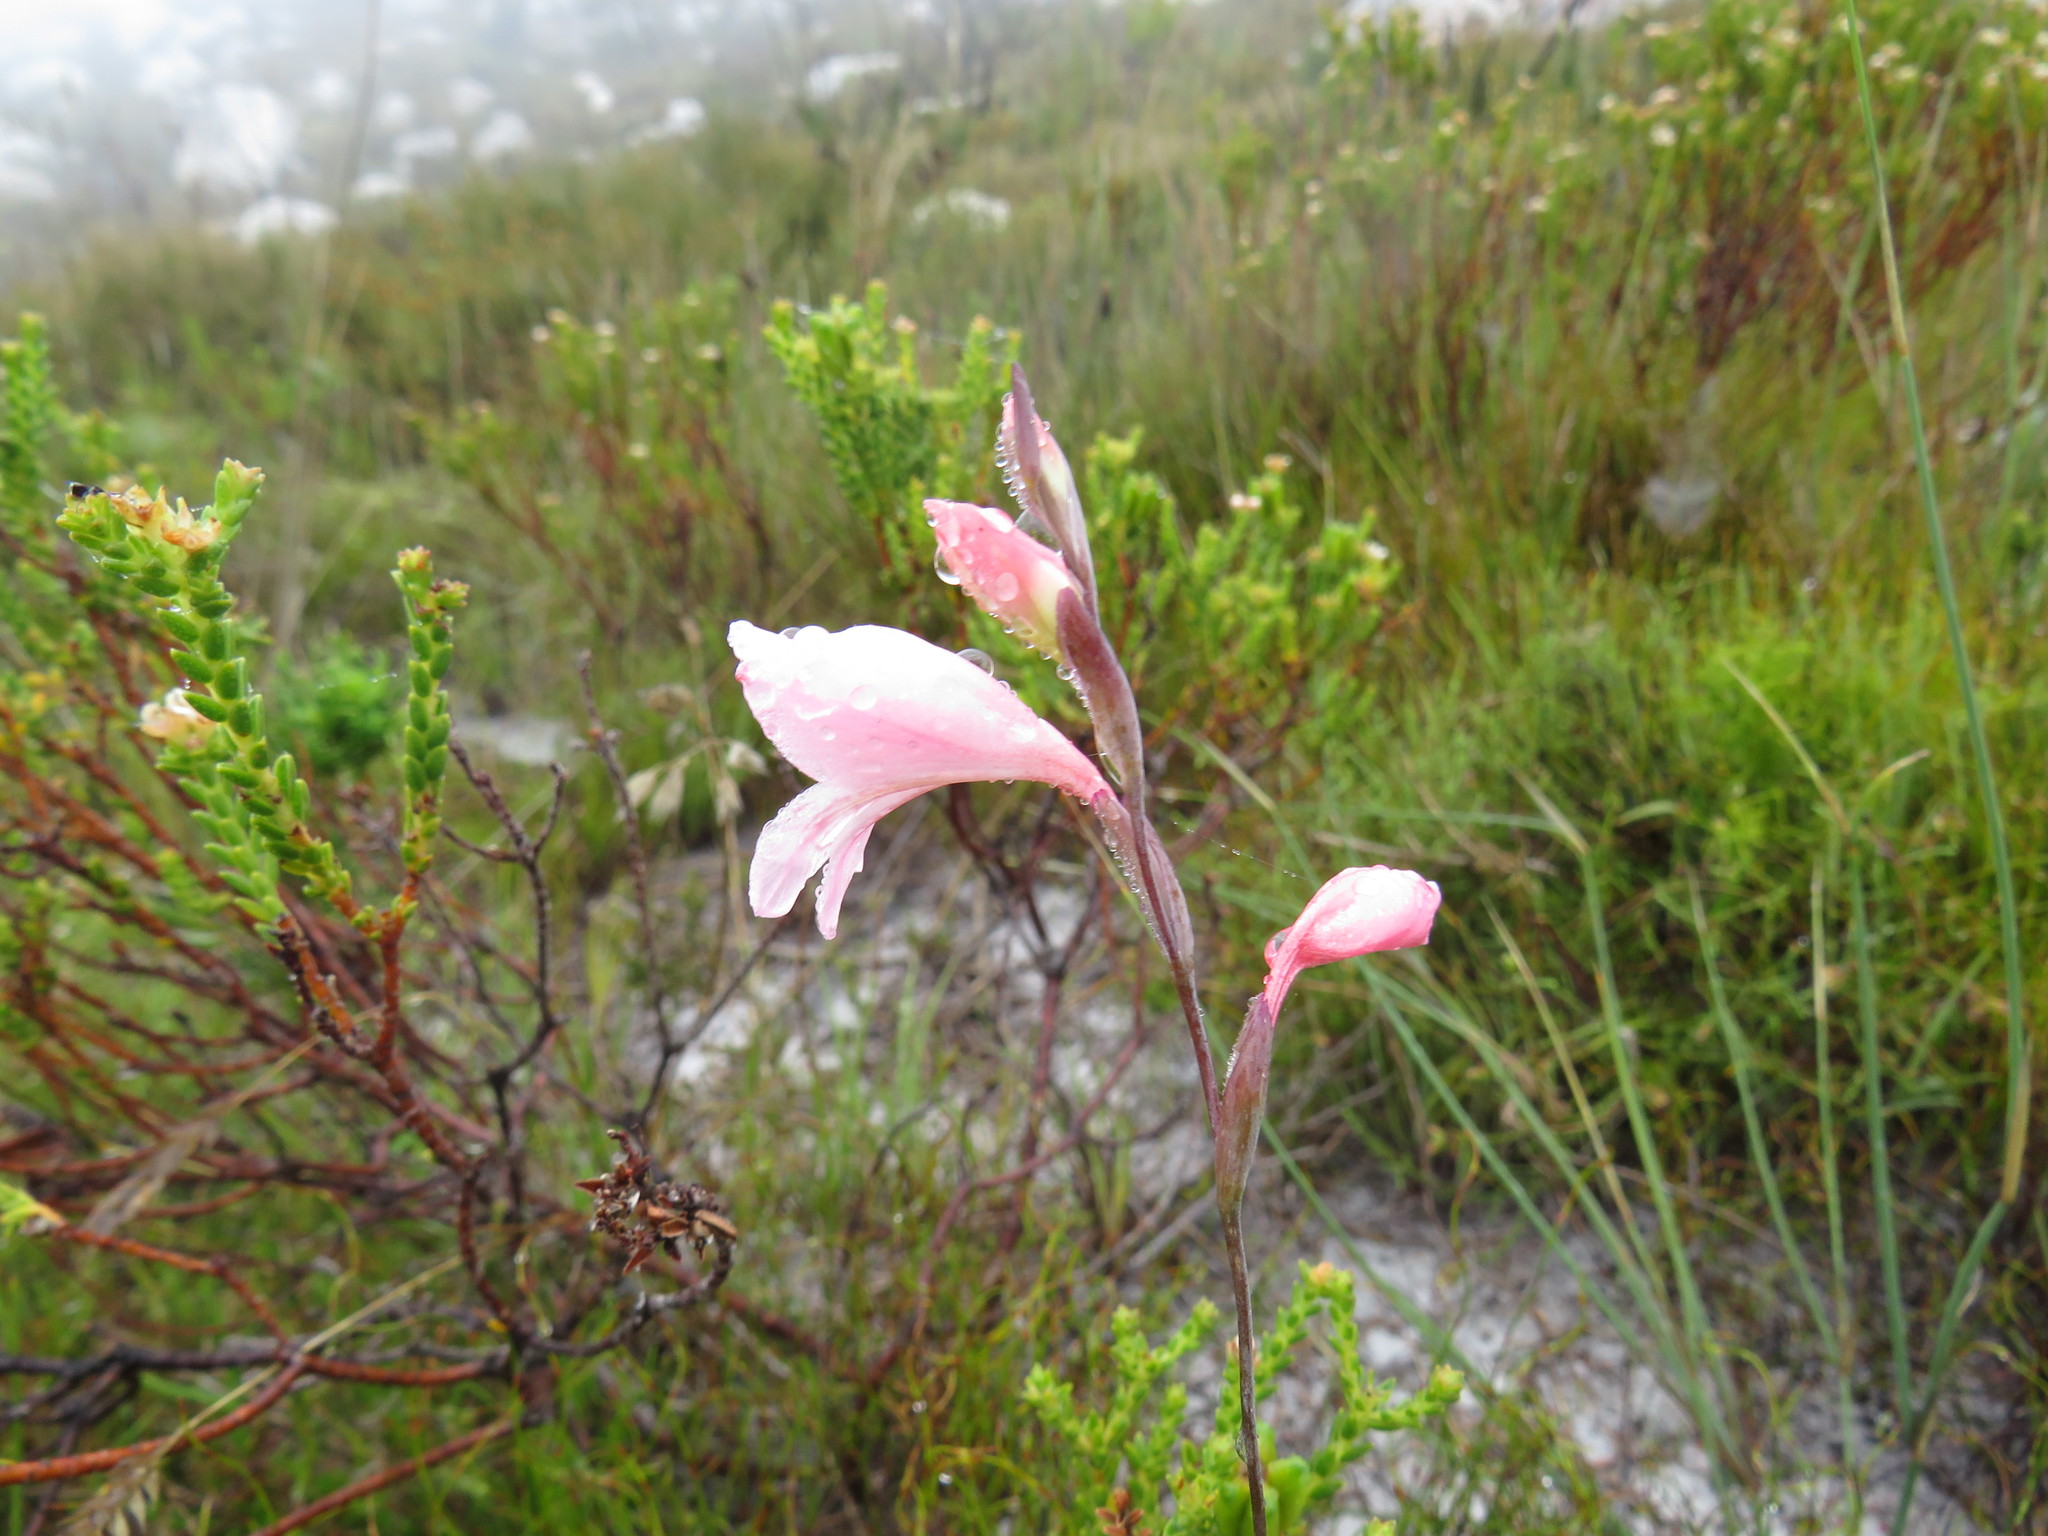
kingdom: Plantae
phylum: Tracheophyta
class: Liliopsida
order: Asparagales
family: Iridaceae
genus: Gladiolus
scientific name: Gladiolus brevifolius
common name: March pypie
